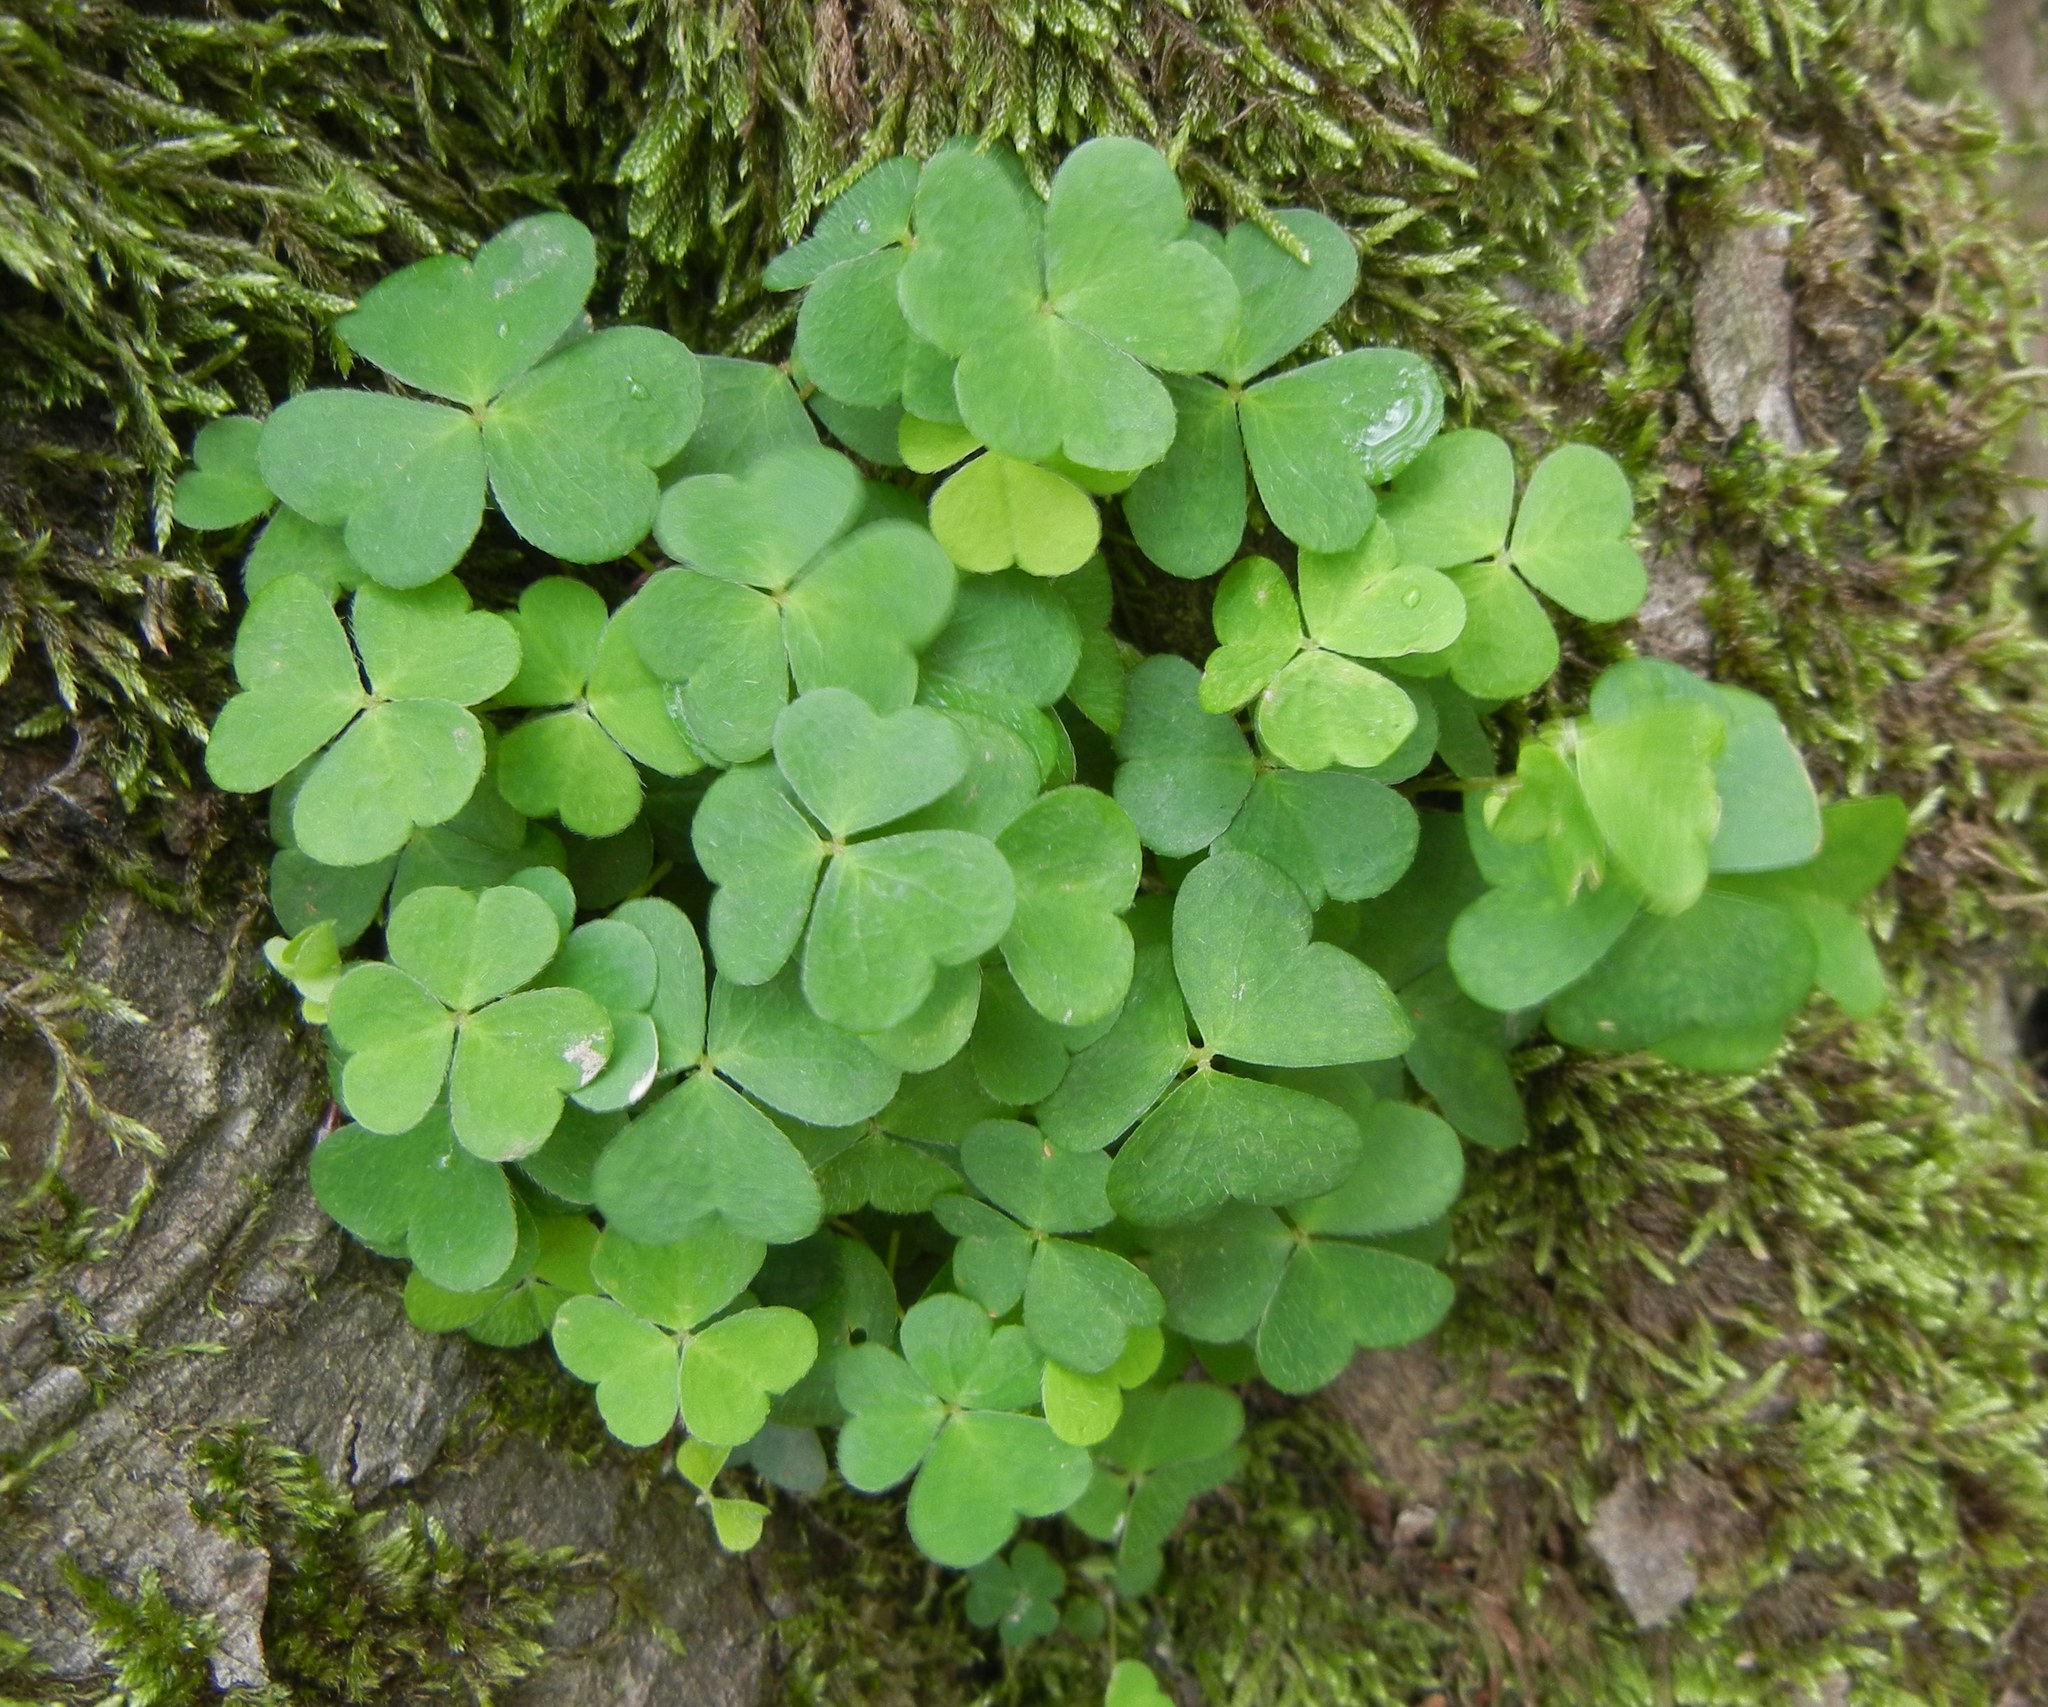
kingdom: Plantae
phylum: Tracheophyta
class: Magnoliopsida
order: Oxalidales
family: Oxalidaceae
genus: Oxalis
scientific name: Oxalis acetosella
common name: Wood-sorrel
